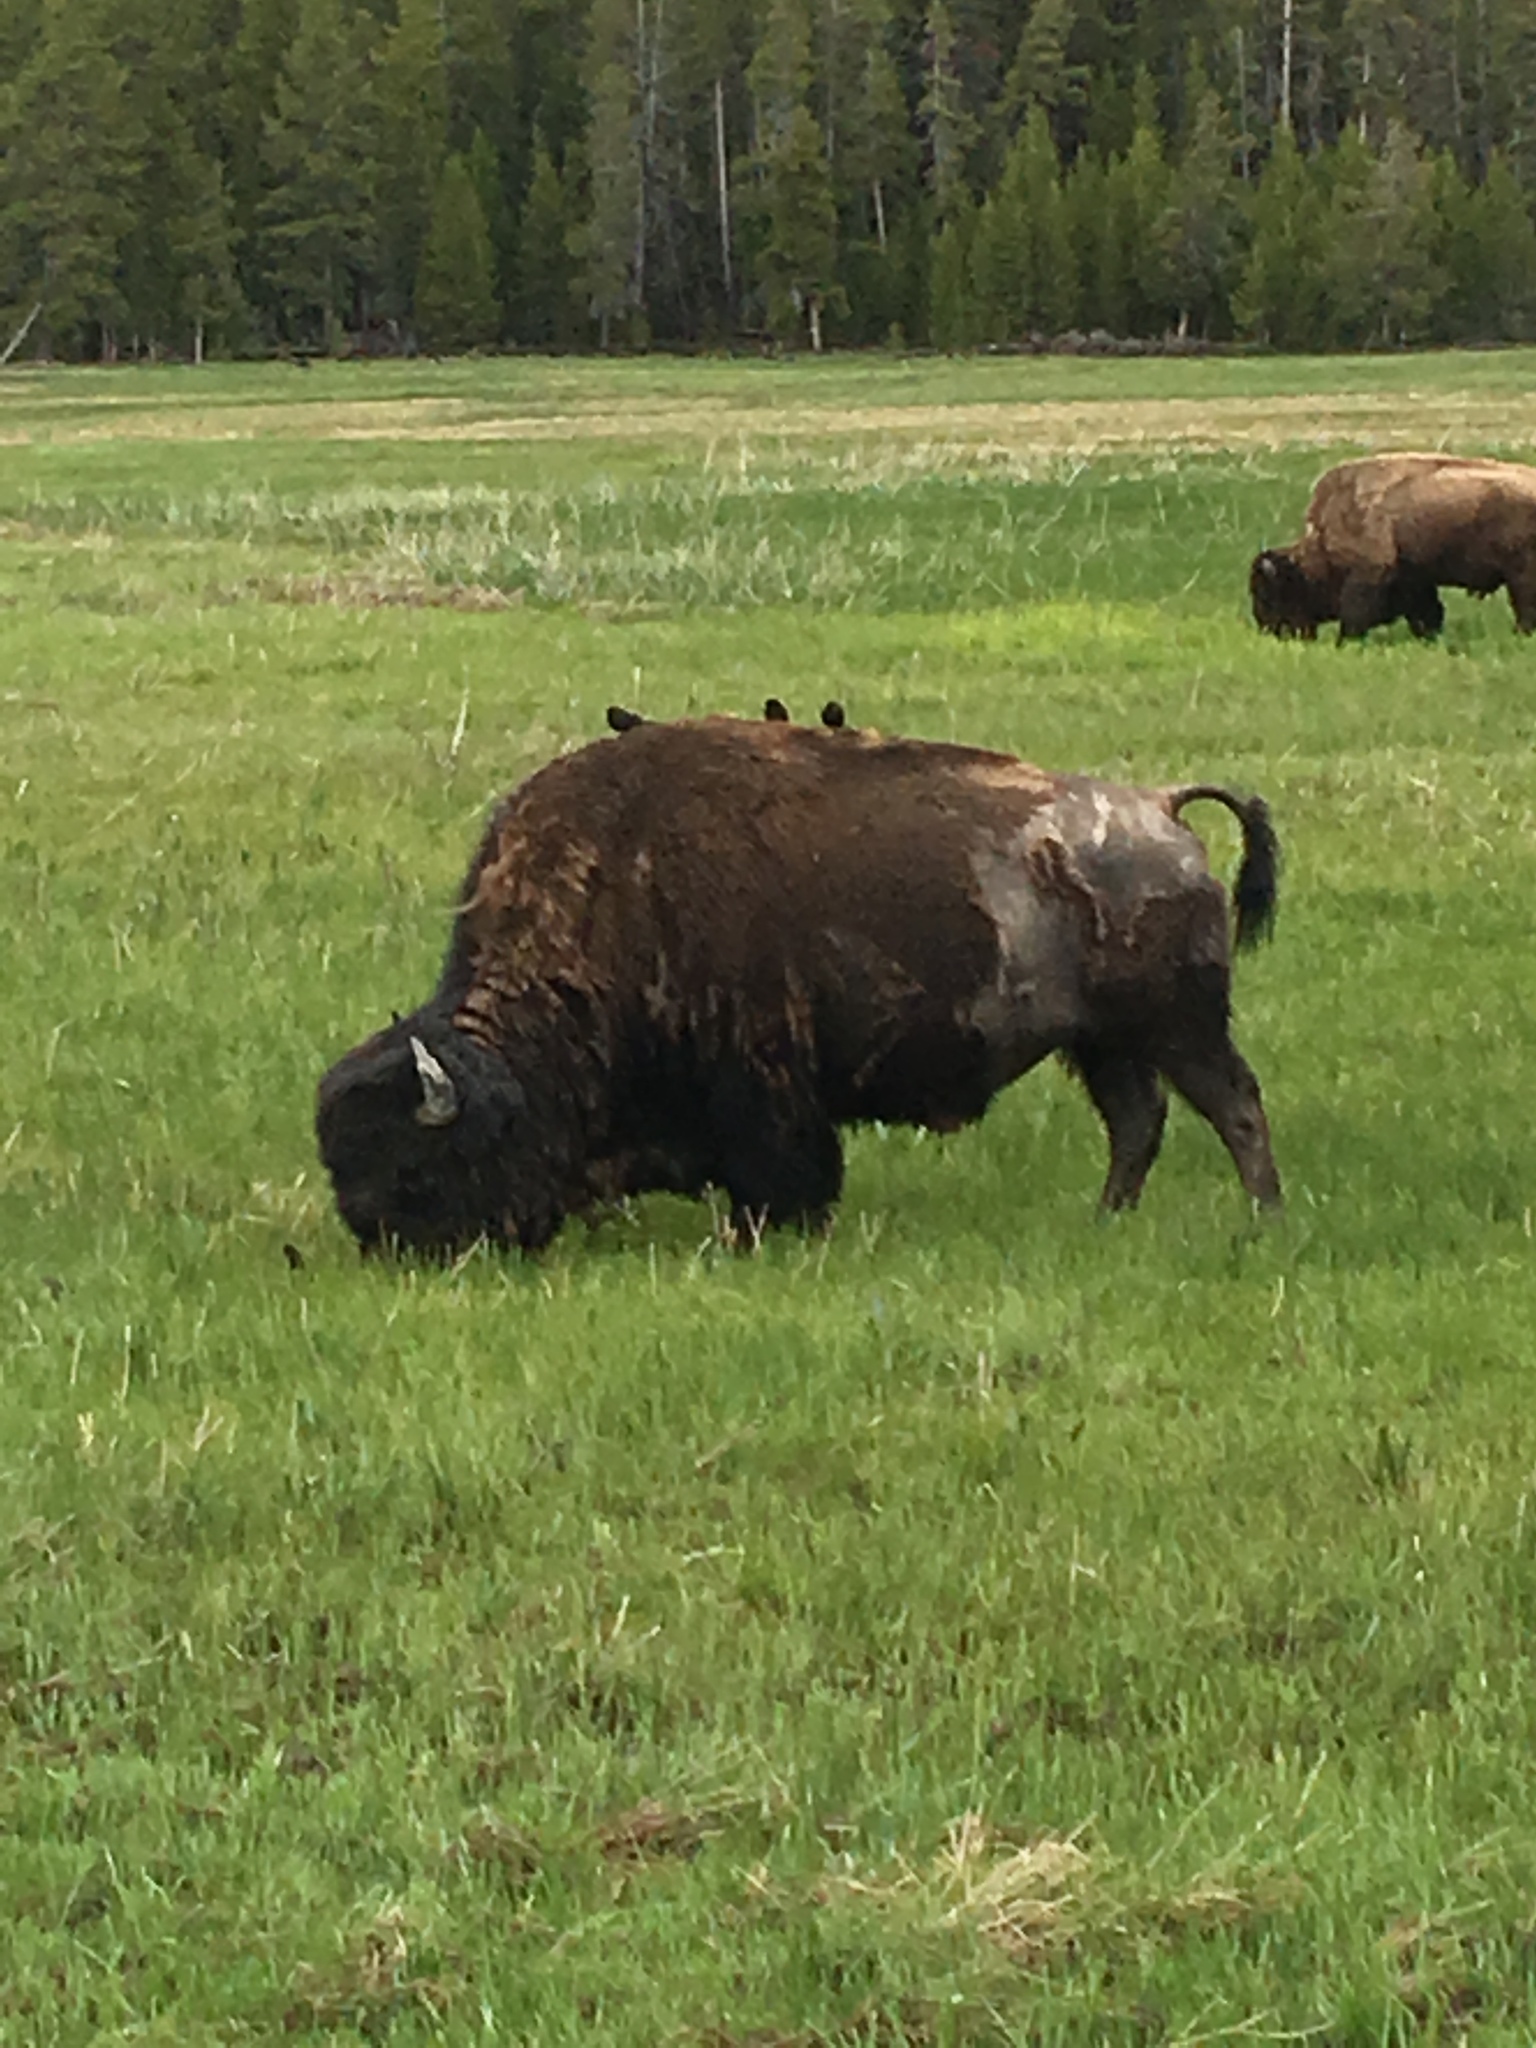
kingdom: Animalia
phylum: Chordata
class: Mammalia
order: Artiodactyla
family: Bovidae
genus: Bison
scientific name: Bison bison
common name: American bison
